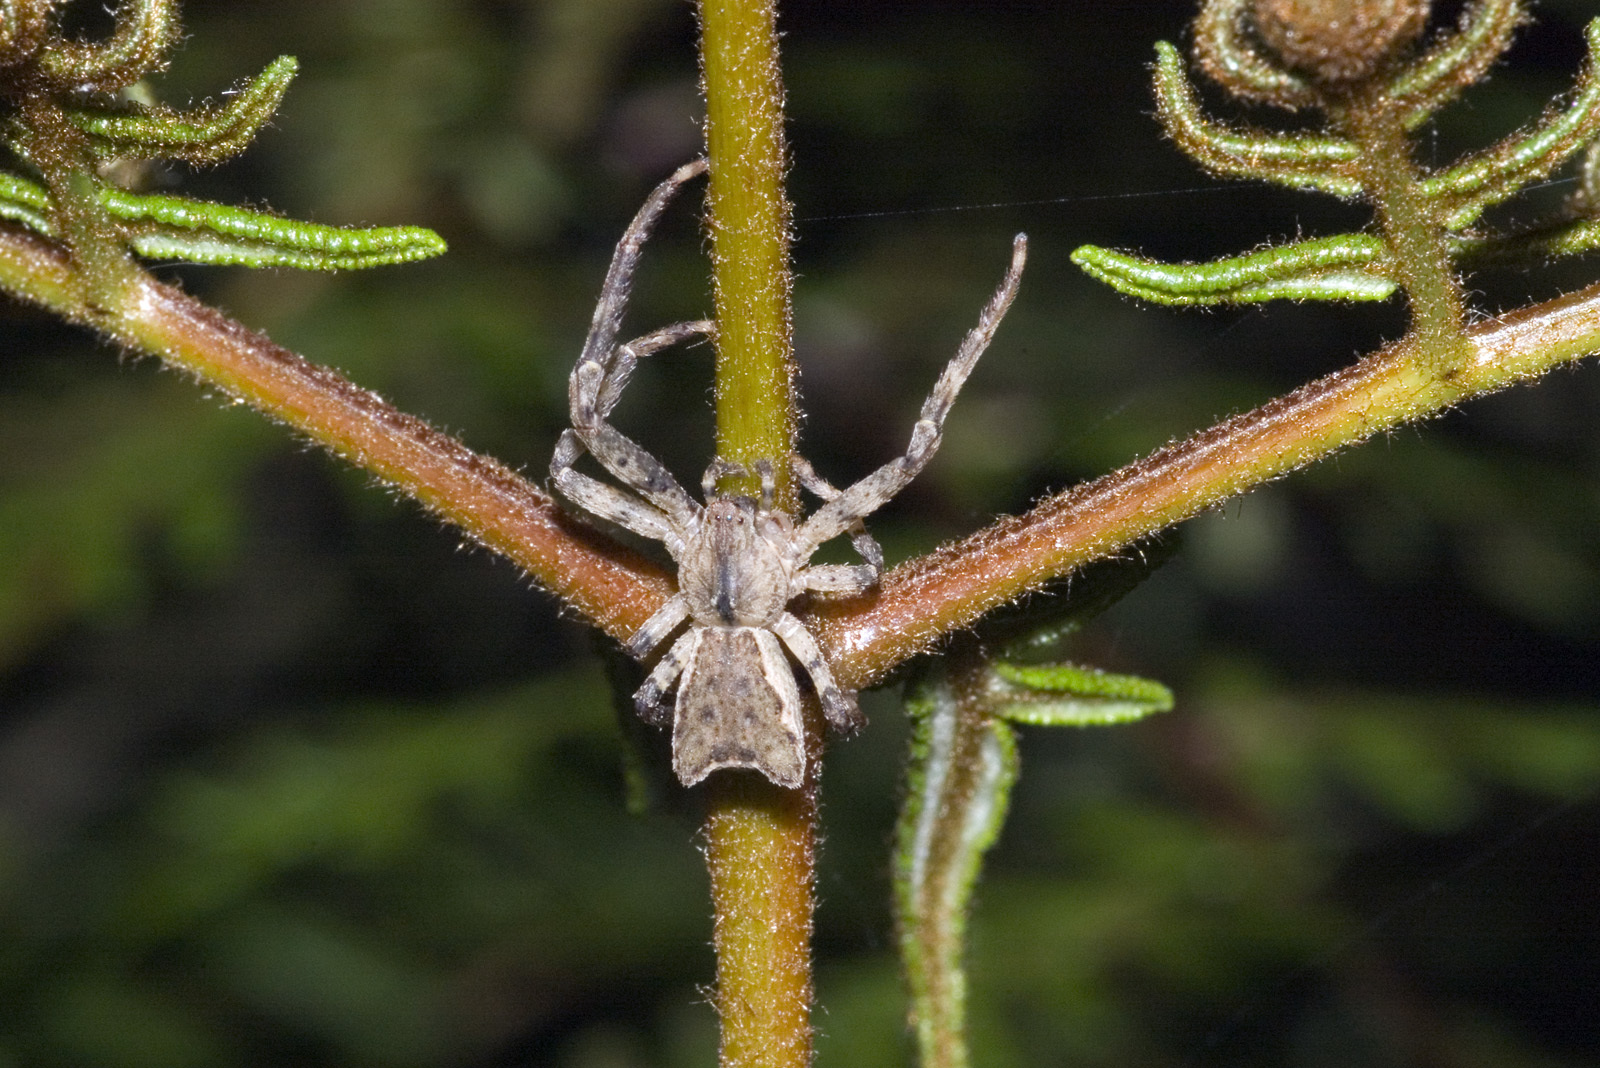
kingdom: Animalia
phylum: Arthropoda
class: Arachnida
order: Araneae
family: Thomisidae
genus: Sidymella
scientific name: Sidymella angularis
